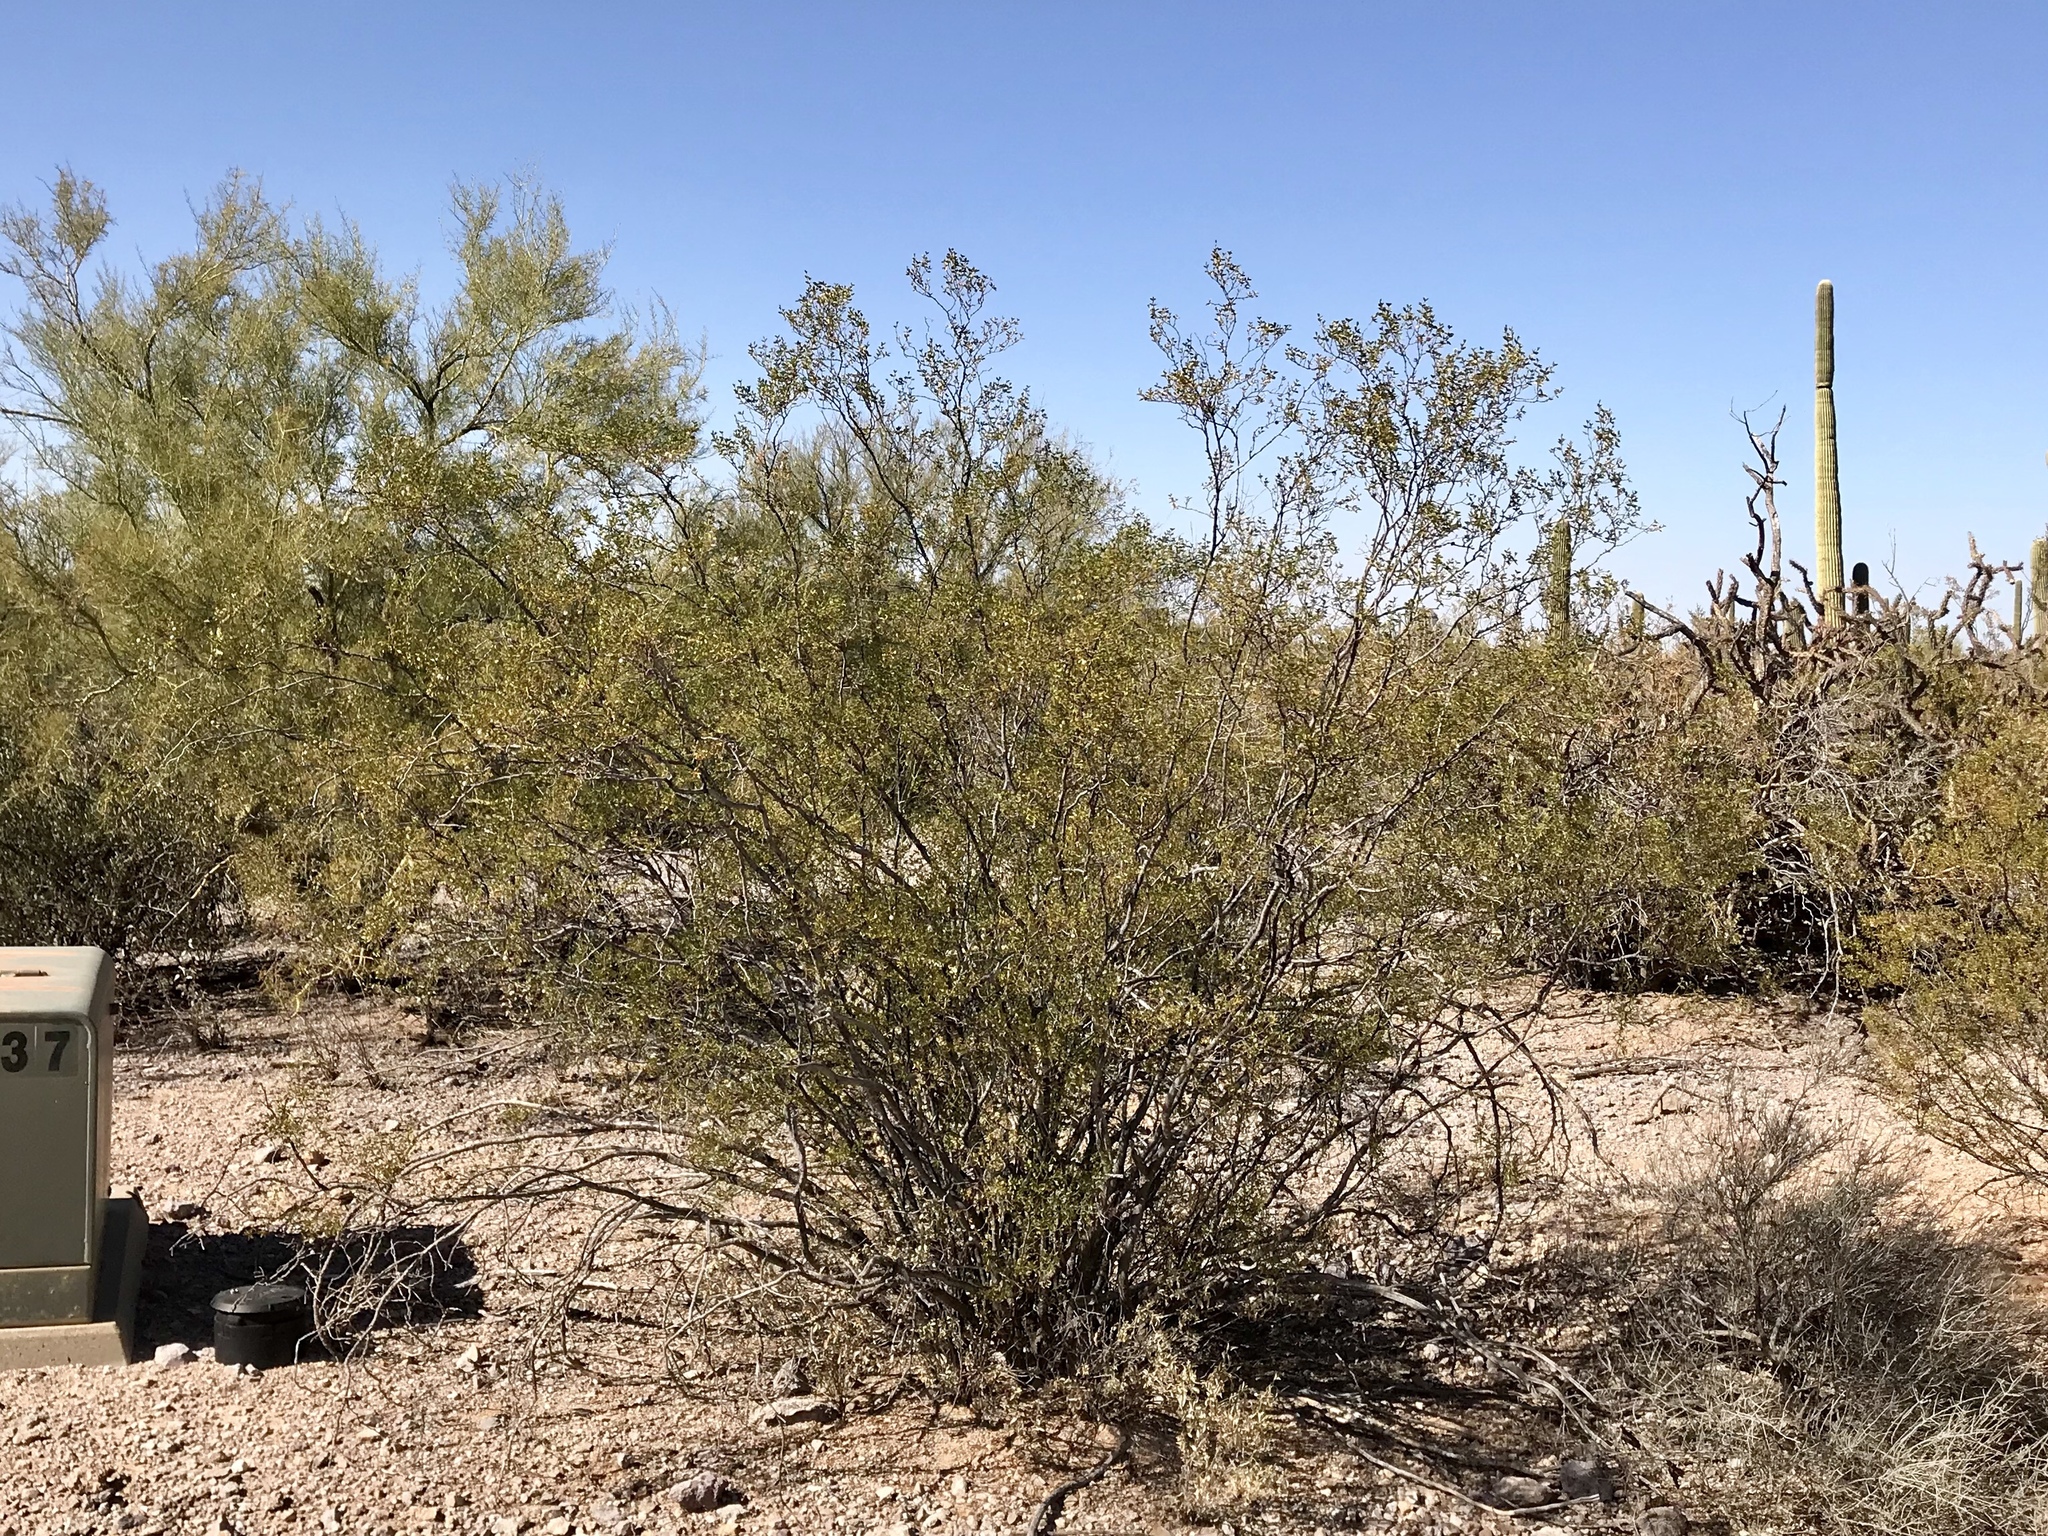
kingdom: Plantae
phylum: Tracheophyta
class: Magnoliopsida
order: Zygophyllales
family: Zygophyllaceae
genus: Larrea
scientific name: Larrea tridentata
